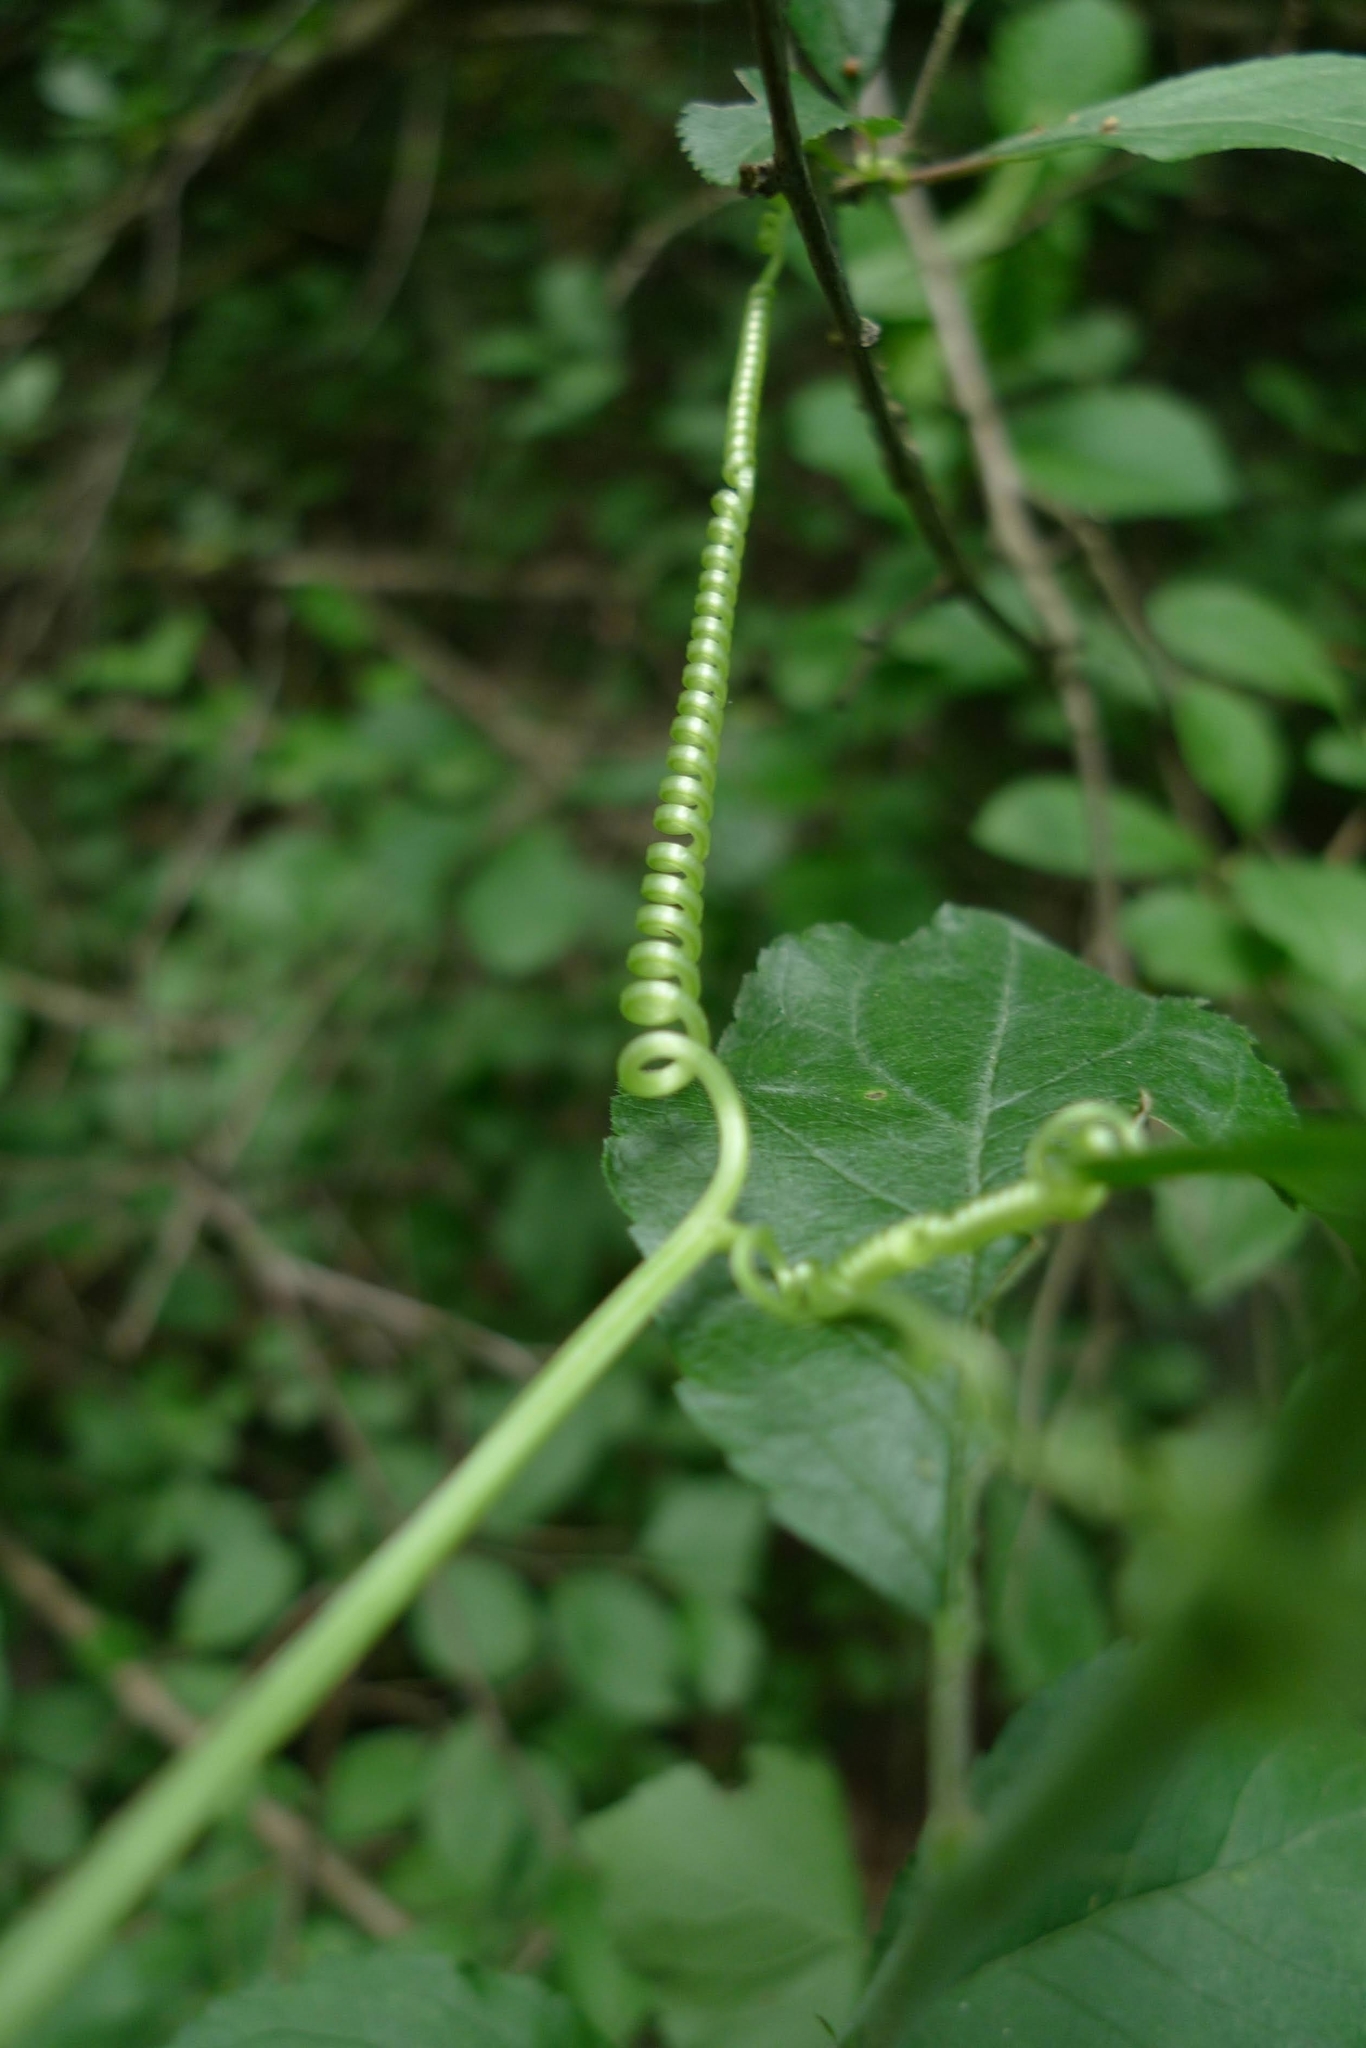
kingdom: Plantae
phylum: Tracheophyta
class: Magnoliopsida
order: Cucurbitales
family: Cucurbitaceae
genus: Echinocystis
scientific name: Echinocystis lobata
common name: Wild cucumber
